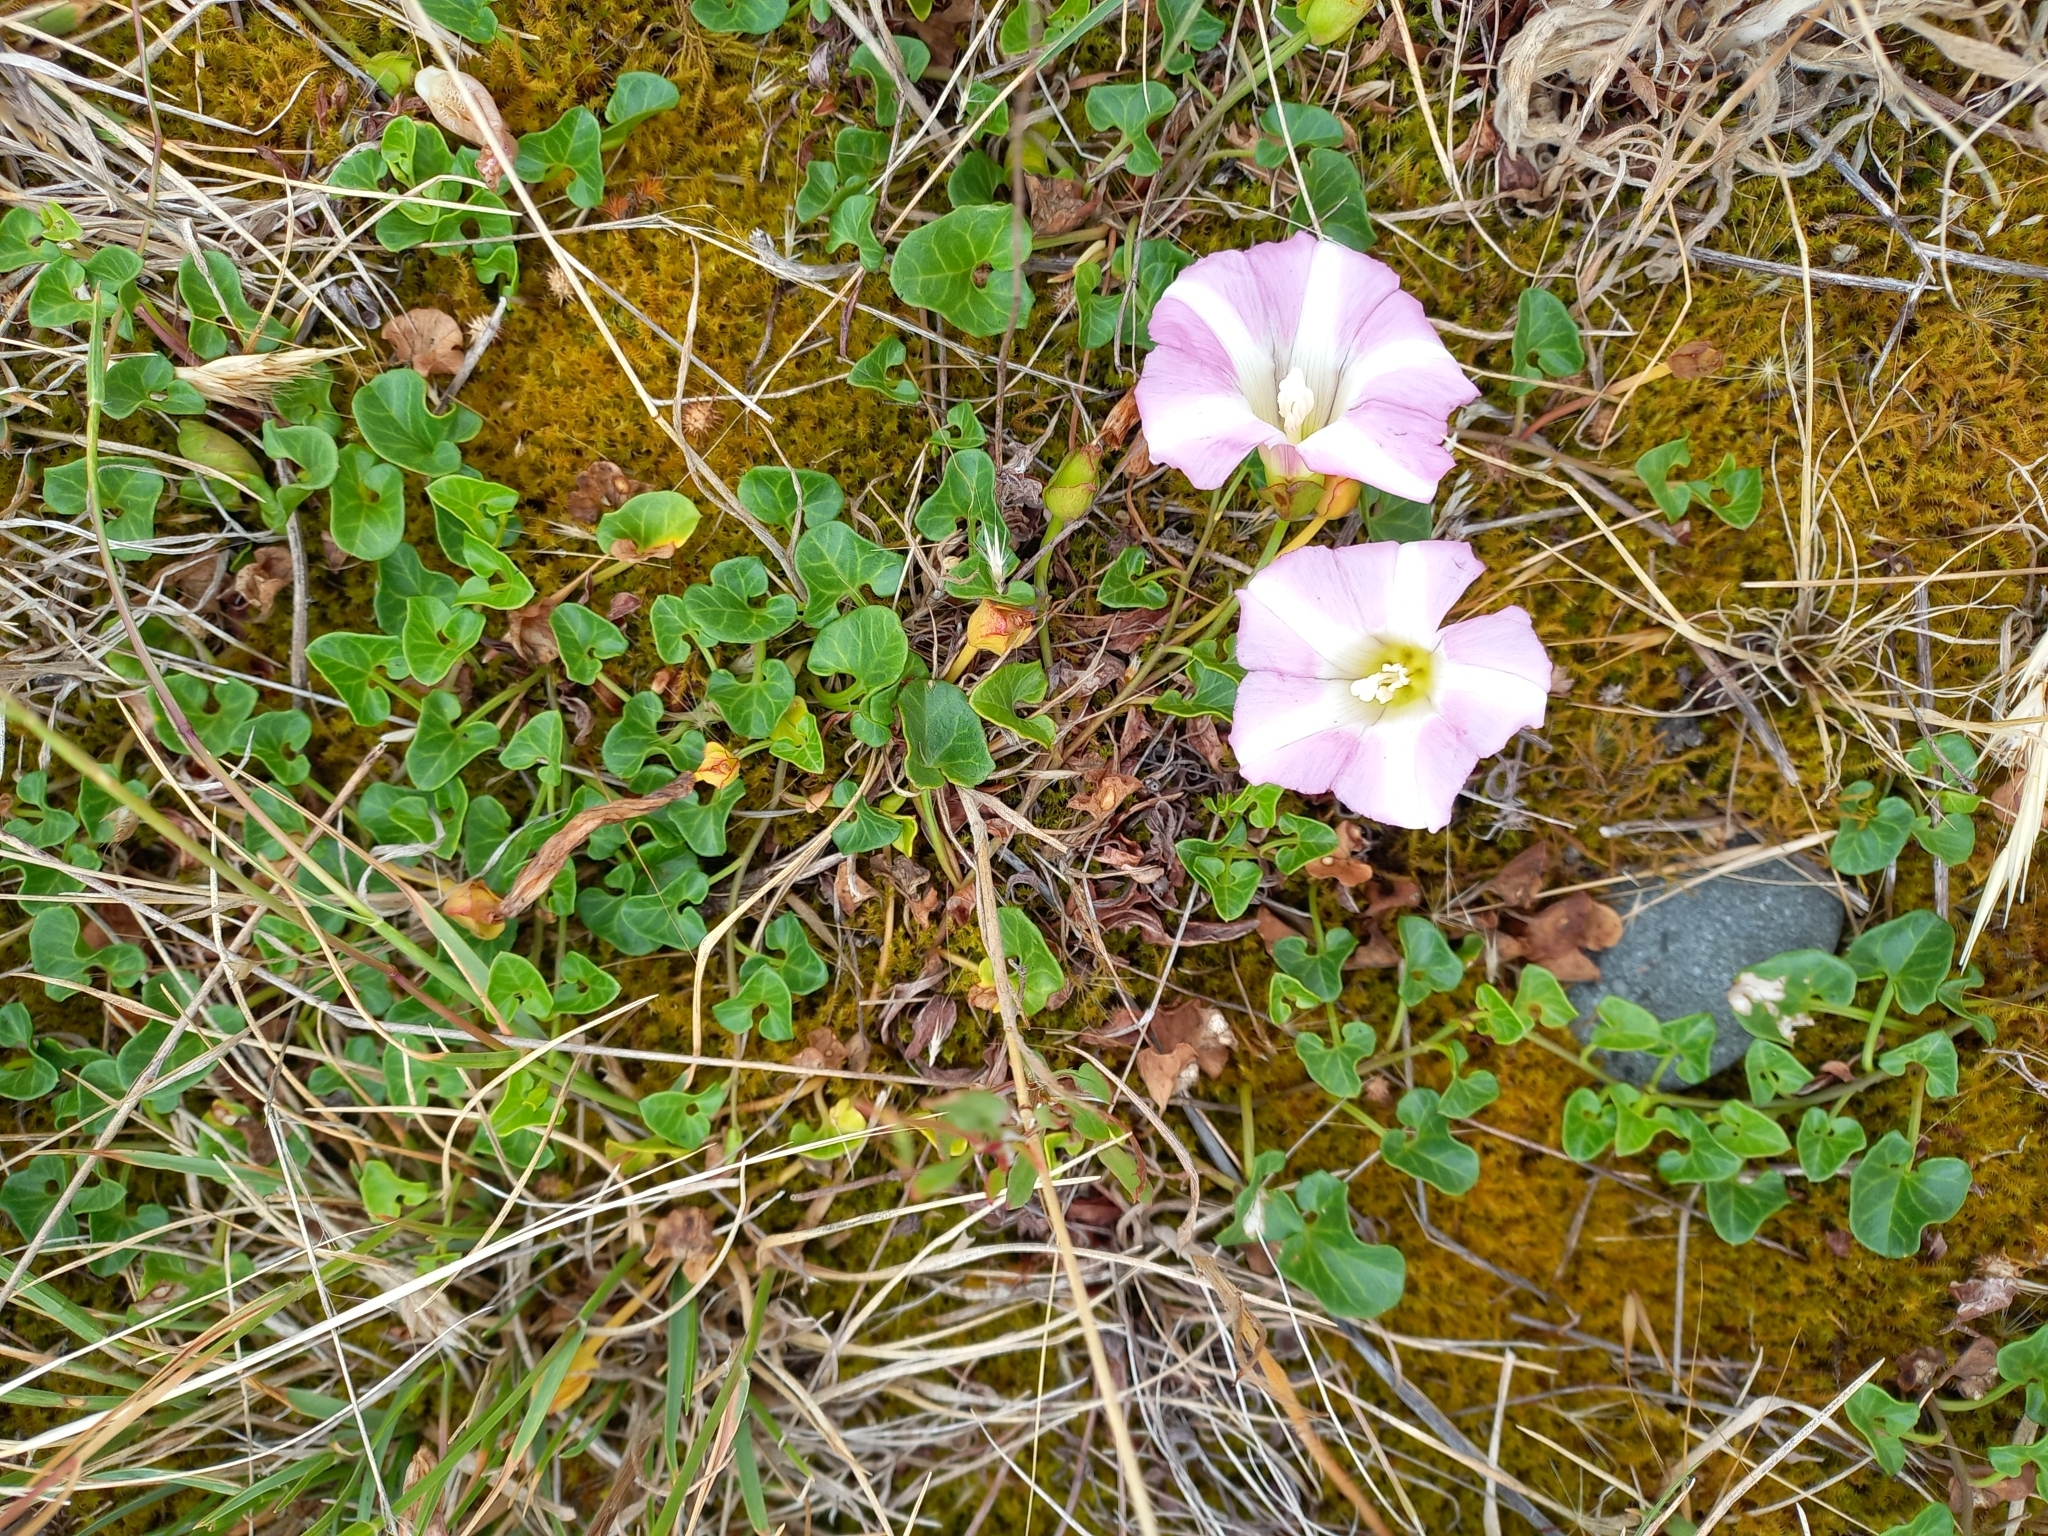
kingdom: Plantae
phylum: Tracheophyta
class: Magnoliopsida
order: Solanales
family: Convolvulaceae
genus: Calystegia
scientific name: Calystegia soldanella
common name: Sea bindweed
